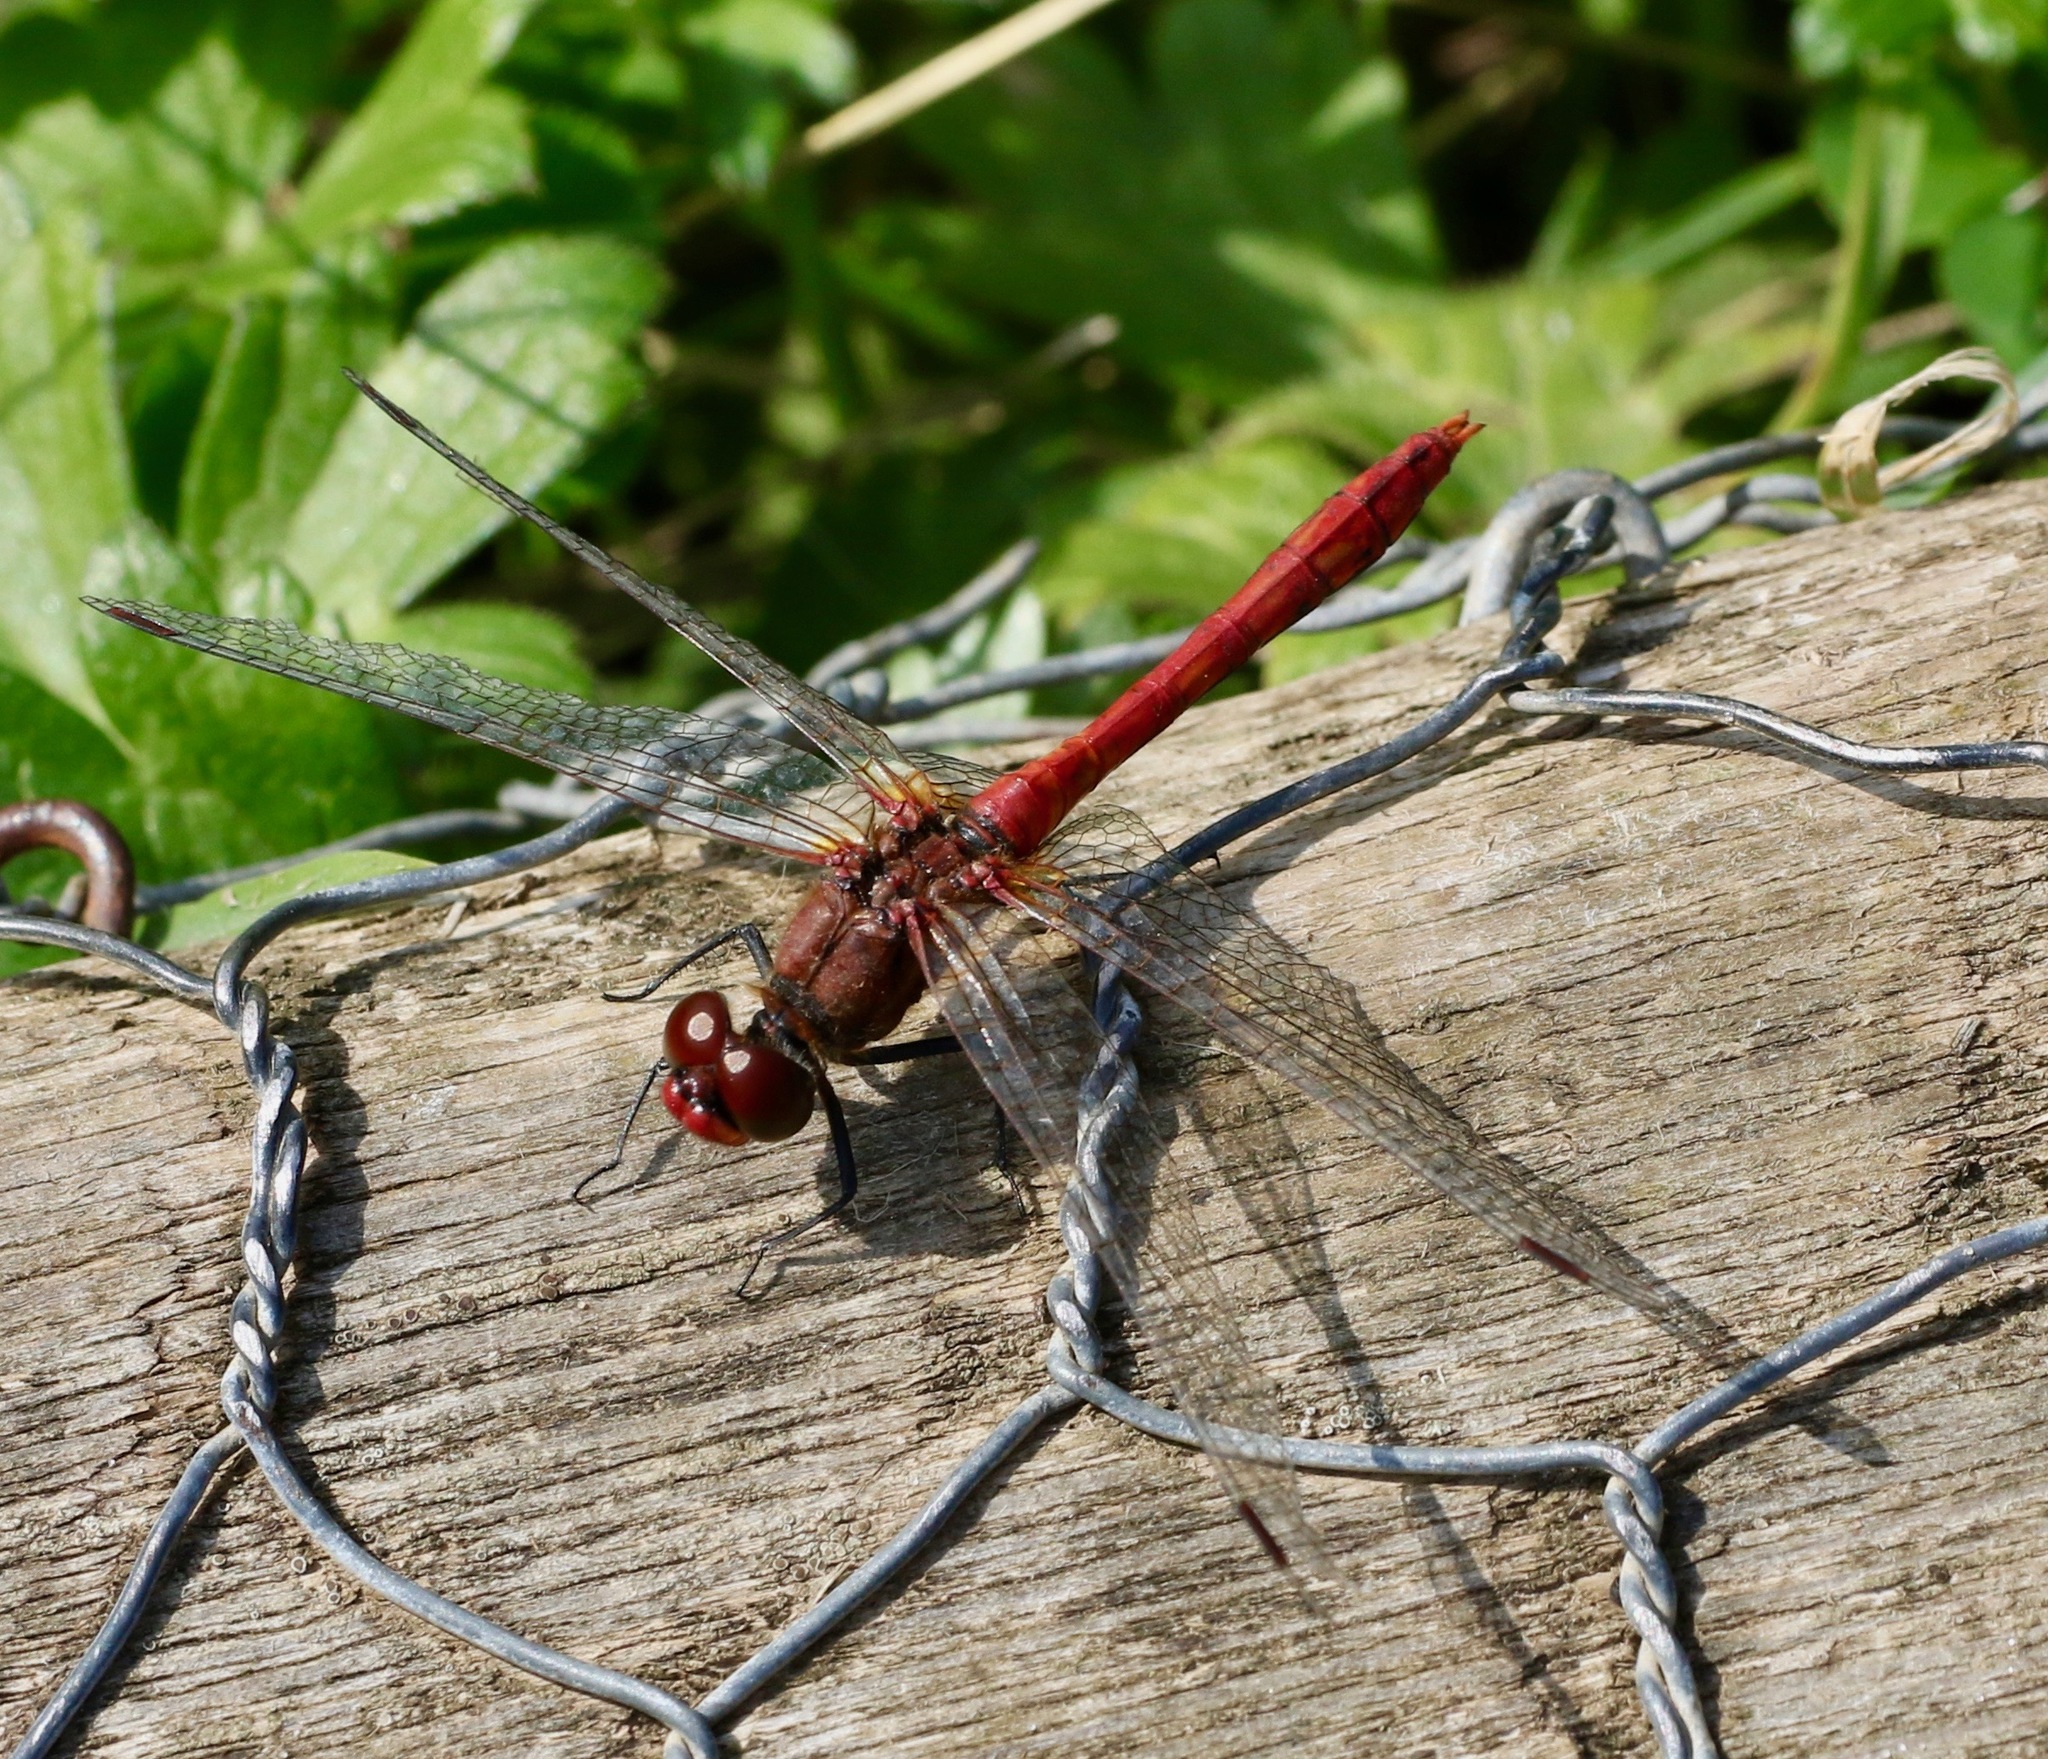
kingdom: Animalia
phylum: Arthropoda
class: Insecta
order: Odonata
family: Libellulidae
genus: Sympetrum
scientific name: Sympetrum sanguineum
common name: Ruddy darter
